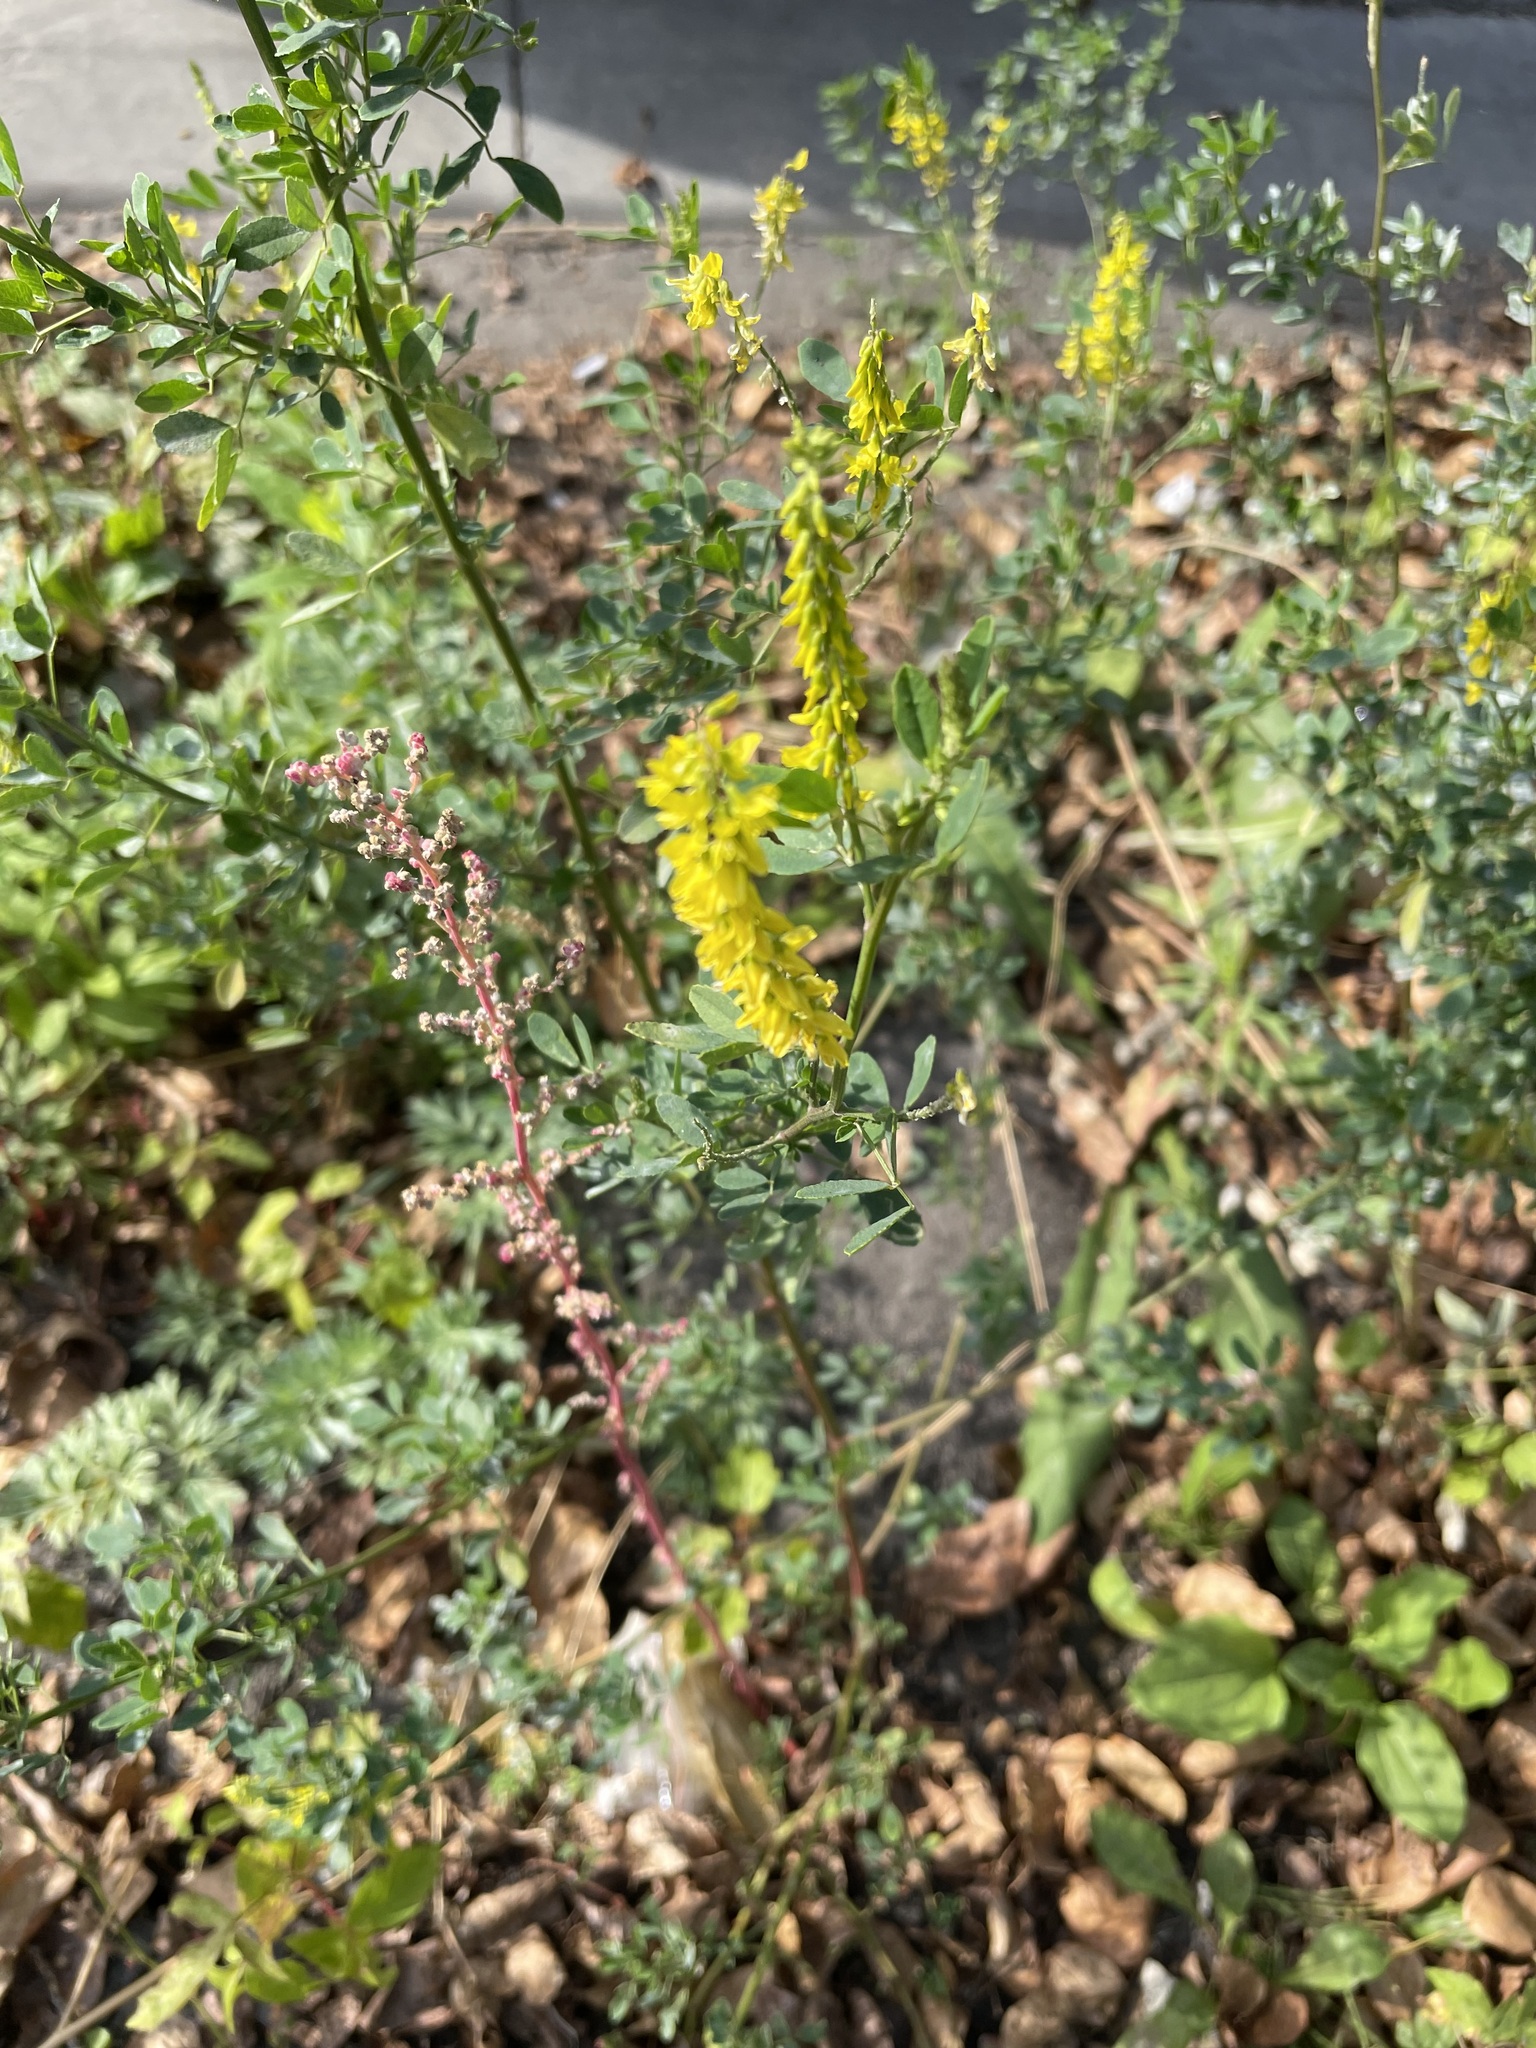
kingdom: Plantae
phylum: Tracheophyta
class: Magnoliopsida
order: Fabales
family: Fabaceae
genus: Melilotus
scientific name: Melilotus officinalis
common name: Sweetclover
